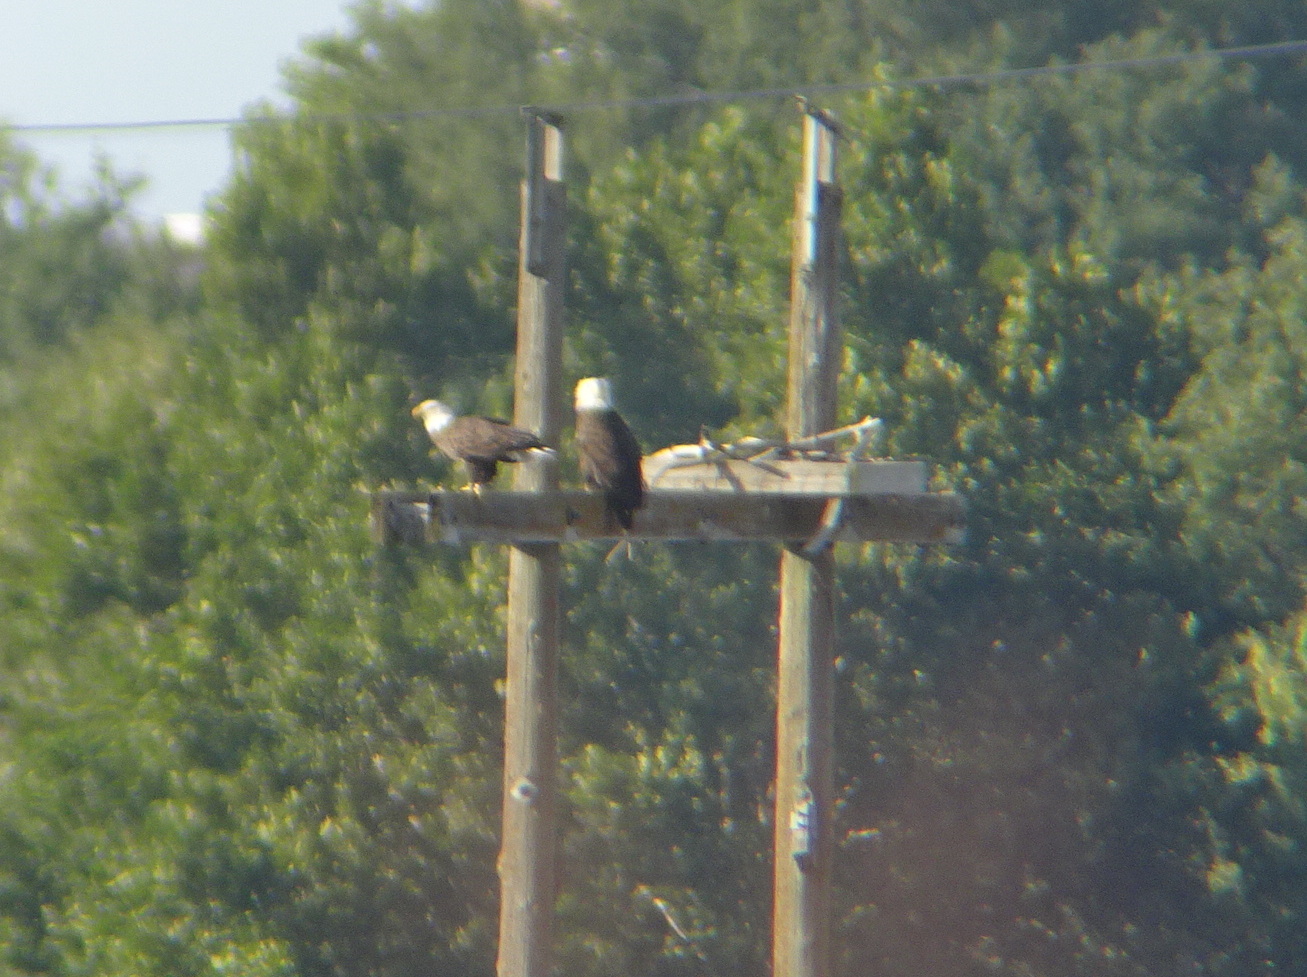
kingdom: Animalia
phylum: Chordata
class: Aves
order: Accipitriformes
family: Accipitridae
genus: Haliaeetus
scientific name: Haliaeetus leucocephalus
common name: Bald eagle
